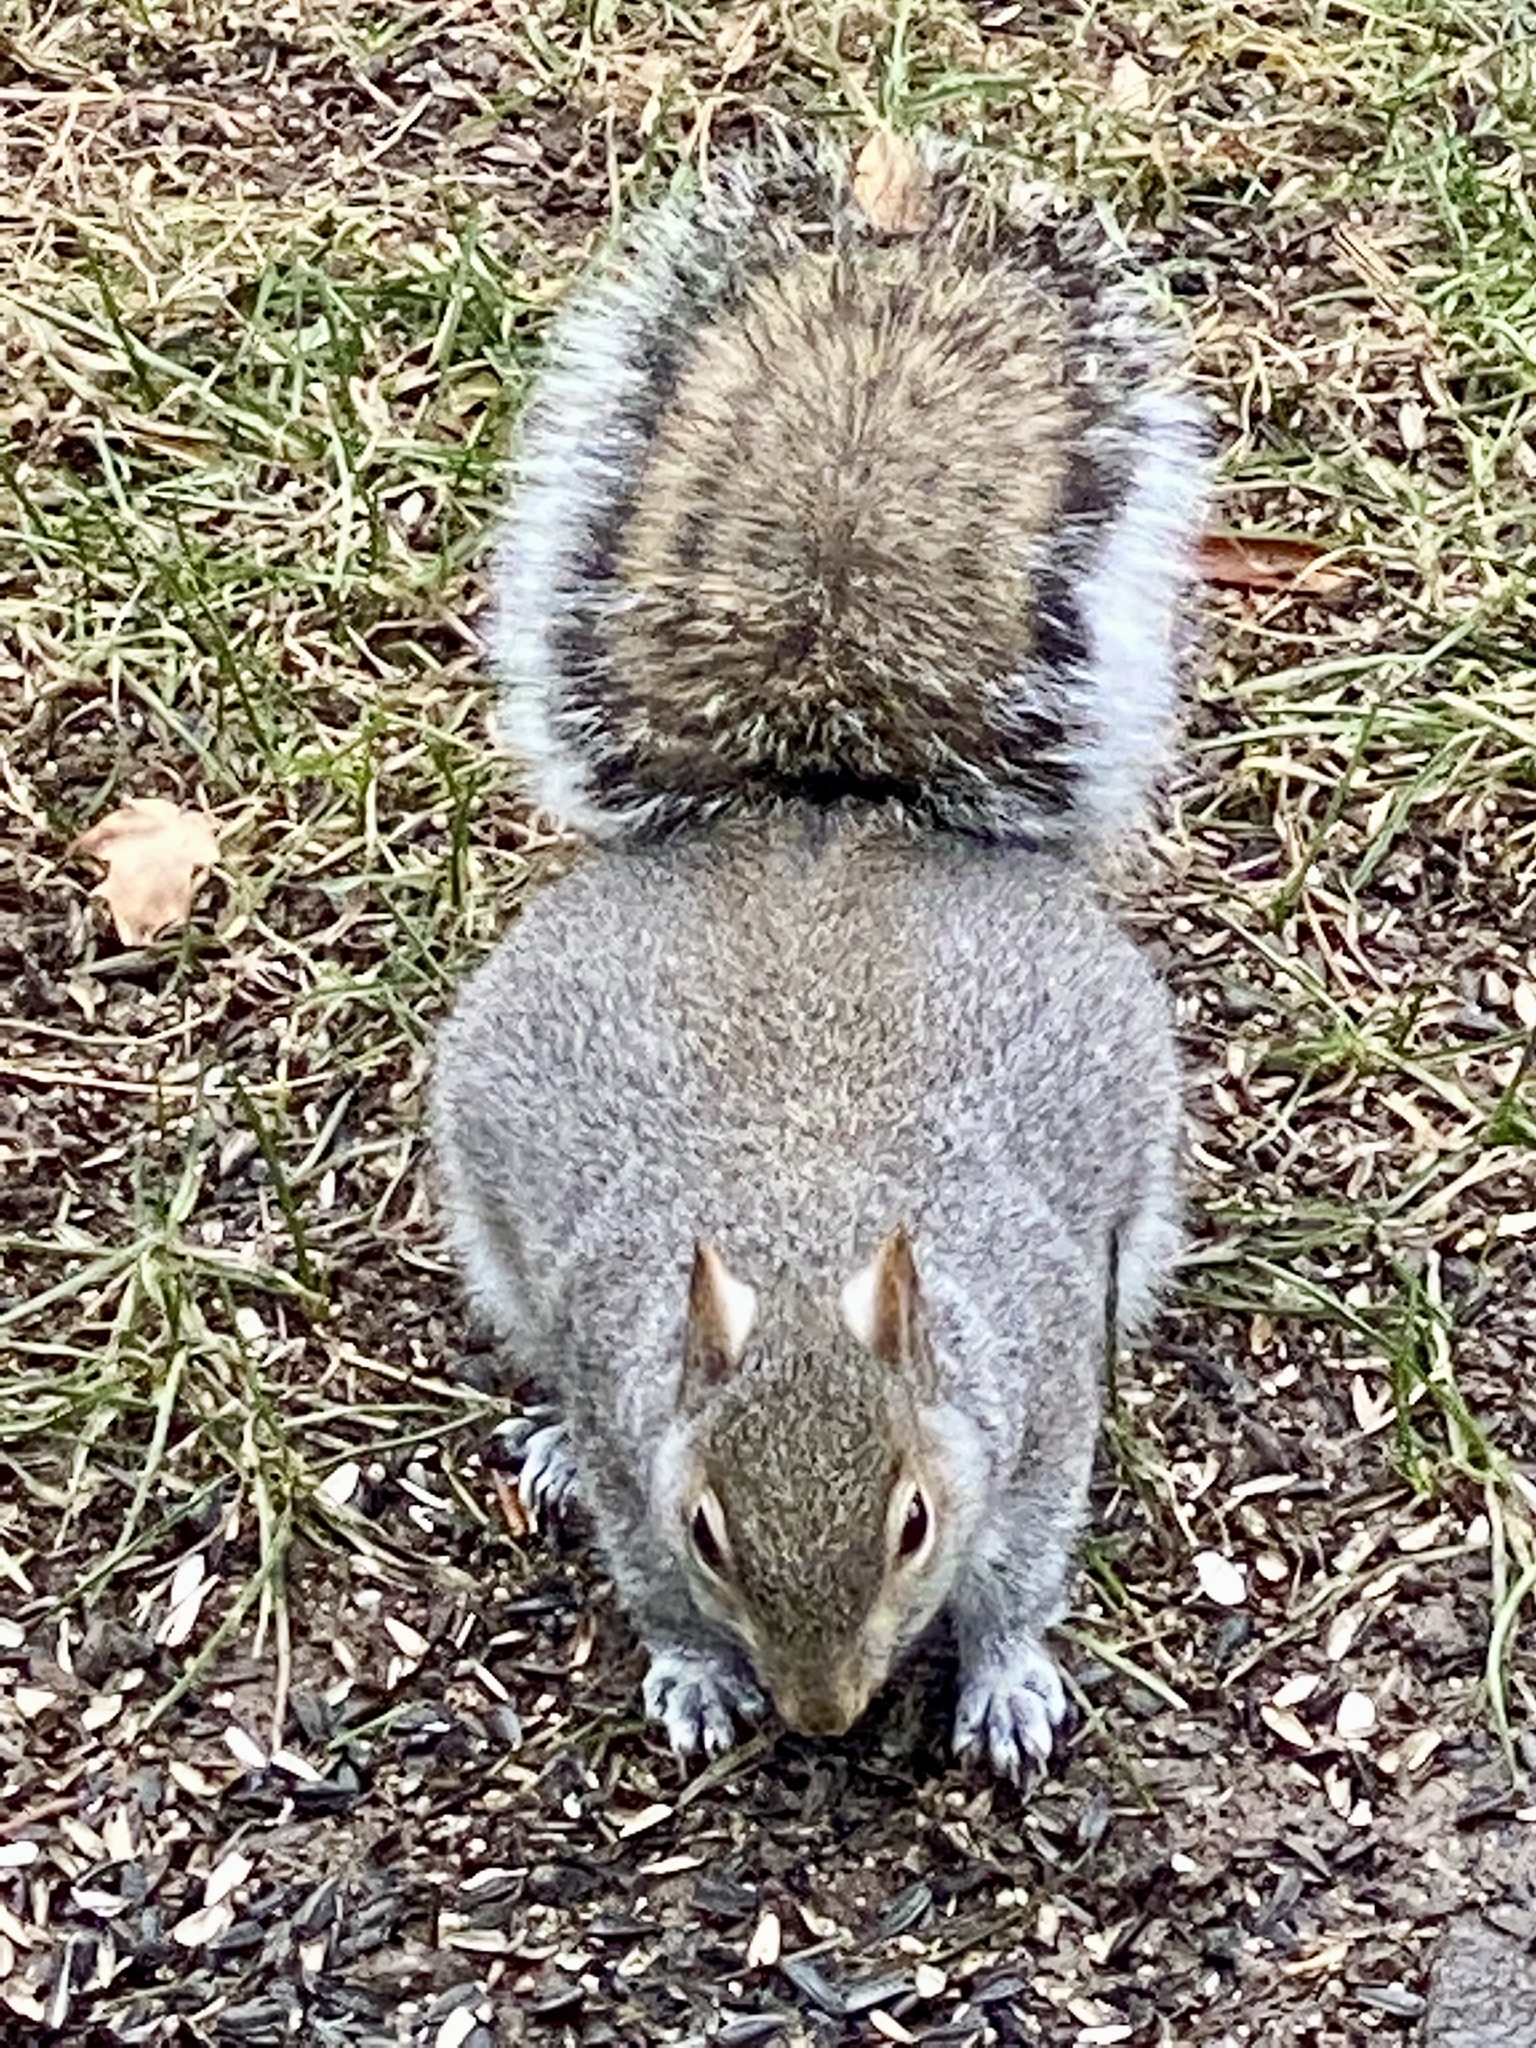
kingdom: Animalia
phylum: Chordata
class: Mammalia
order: Rodentia
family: Sciuridae
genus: Sciurus
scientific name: Sciurus carolinensis
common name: Eastern gray squirrel
